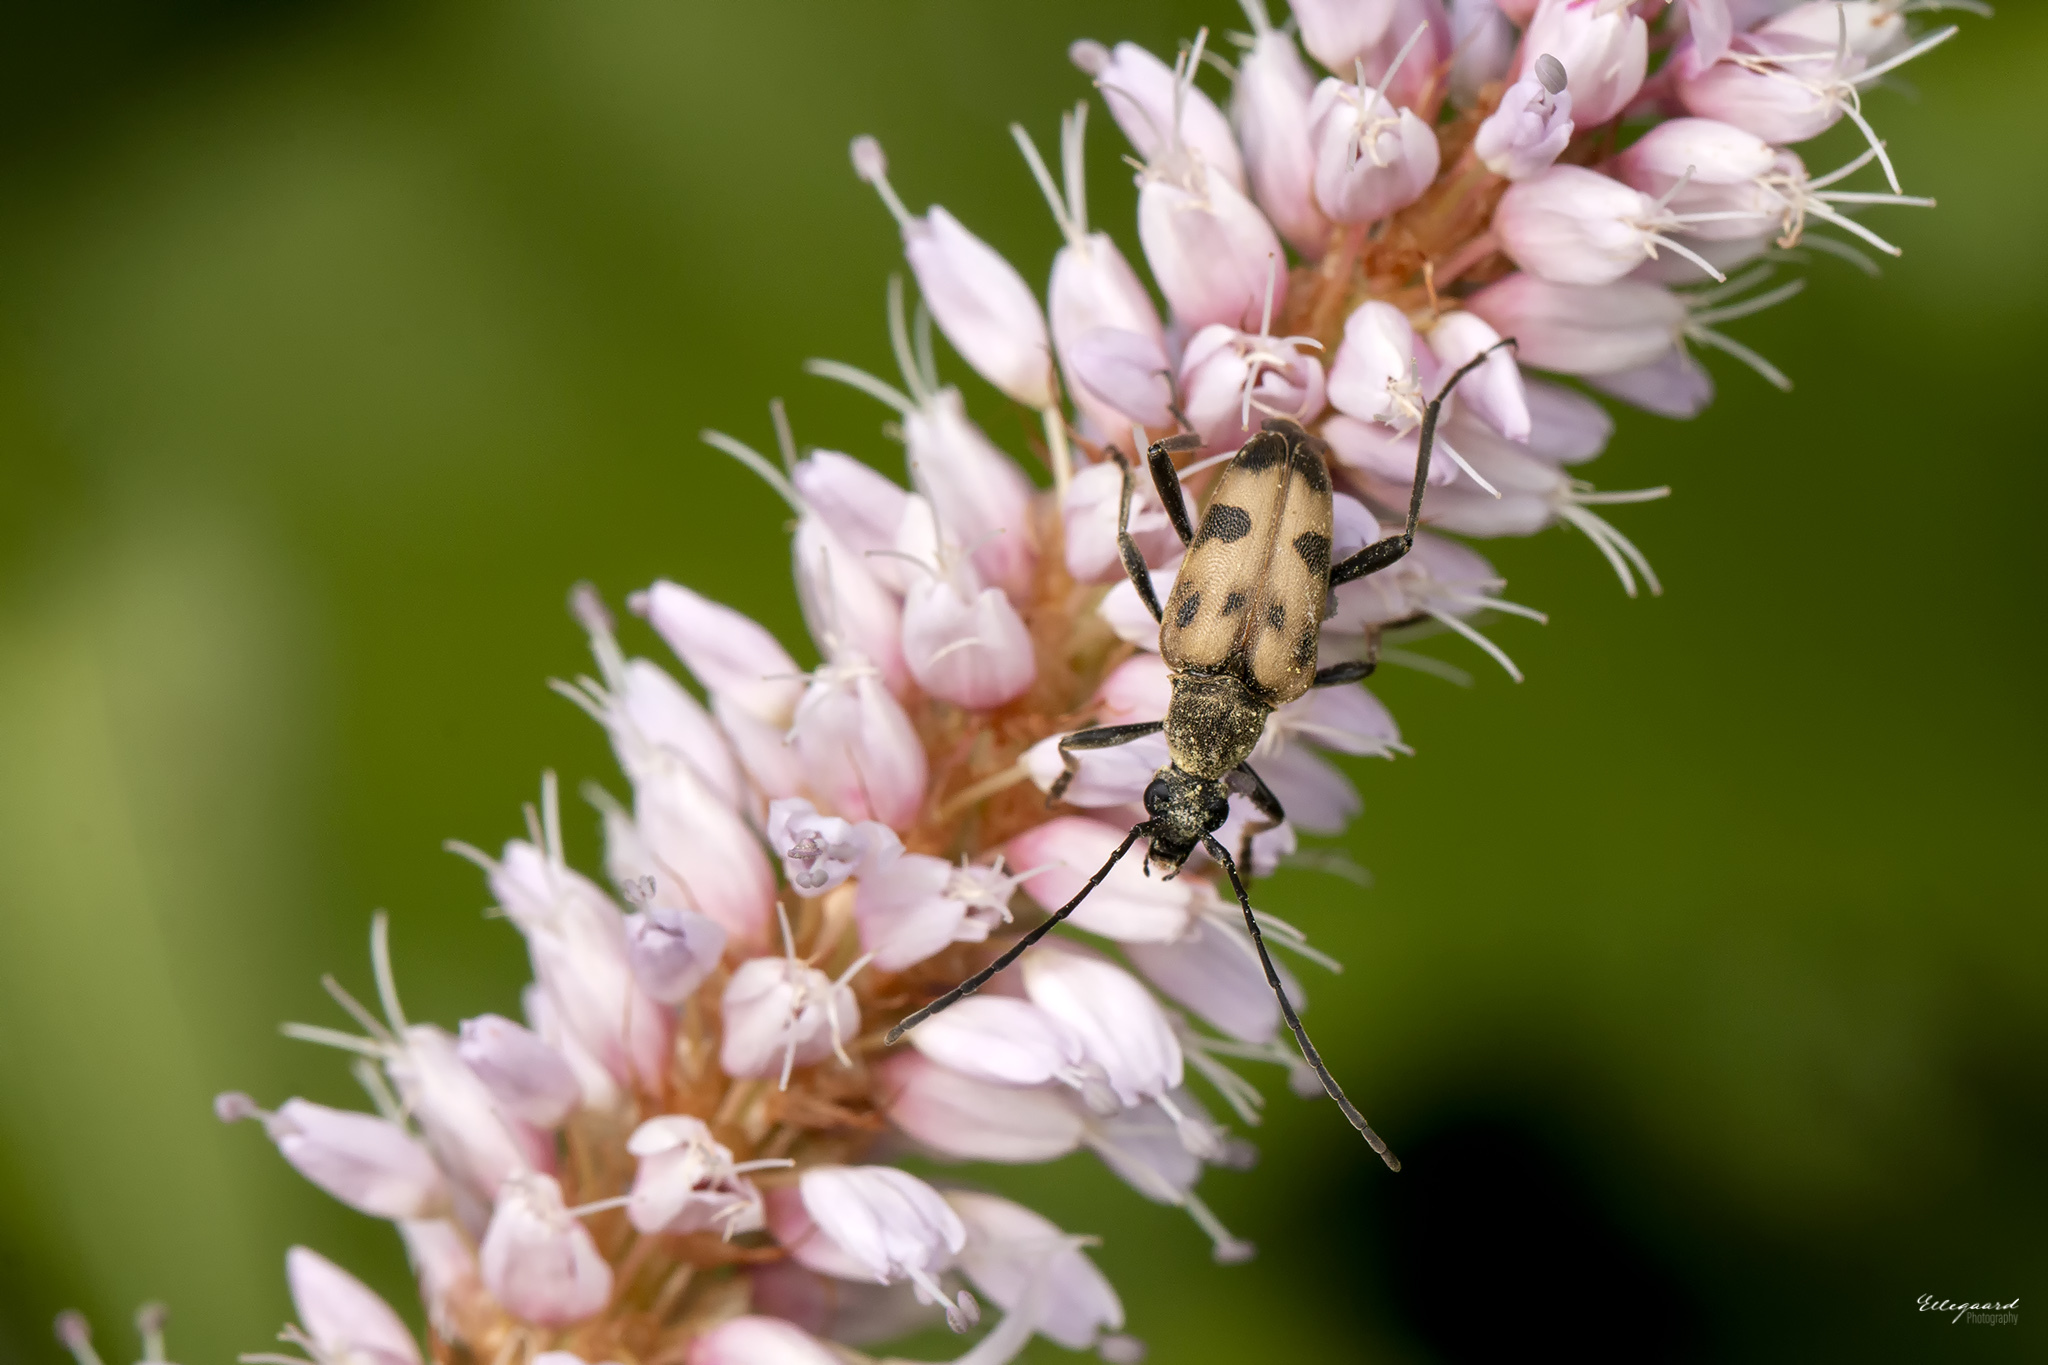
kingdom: Animalia
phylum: Arthropoda
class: Insecta
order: Coleoptera
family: Cerambycidae
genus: Pachytodes
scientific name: Pachytodes cerambyciformis
